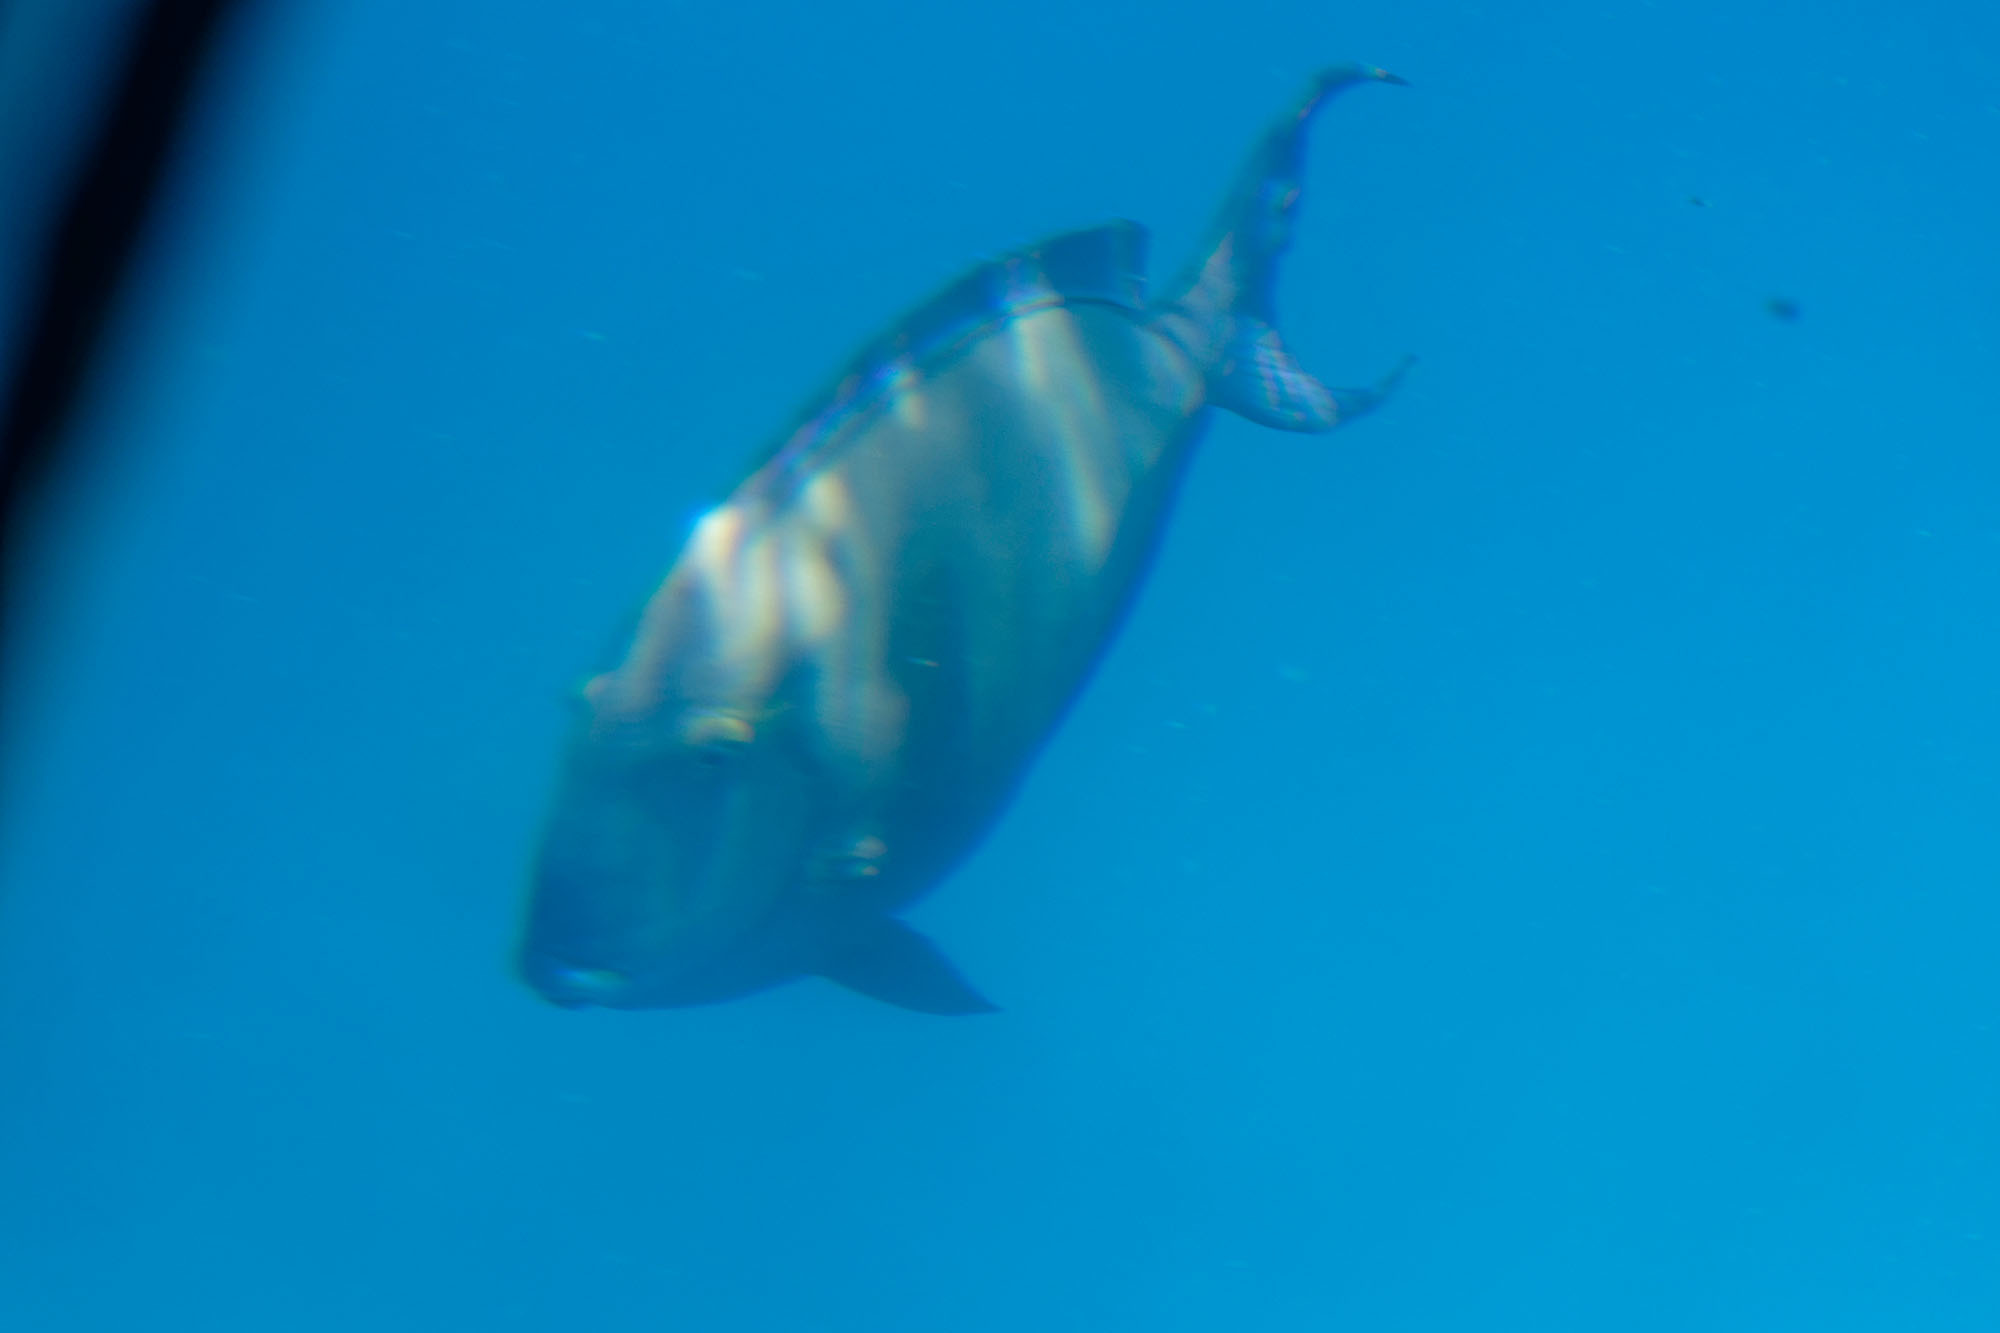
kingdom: Animalia
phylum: Chordata
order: Perciformes
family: Acanthuridae
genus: Acanthurus
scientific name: Acanthurus
